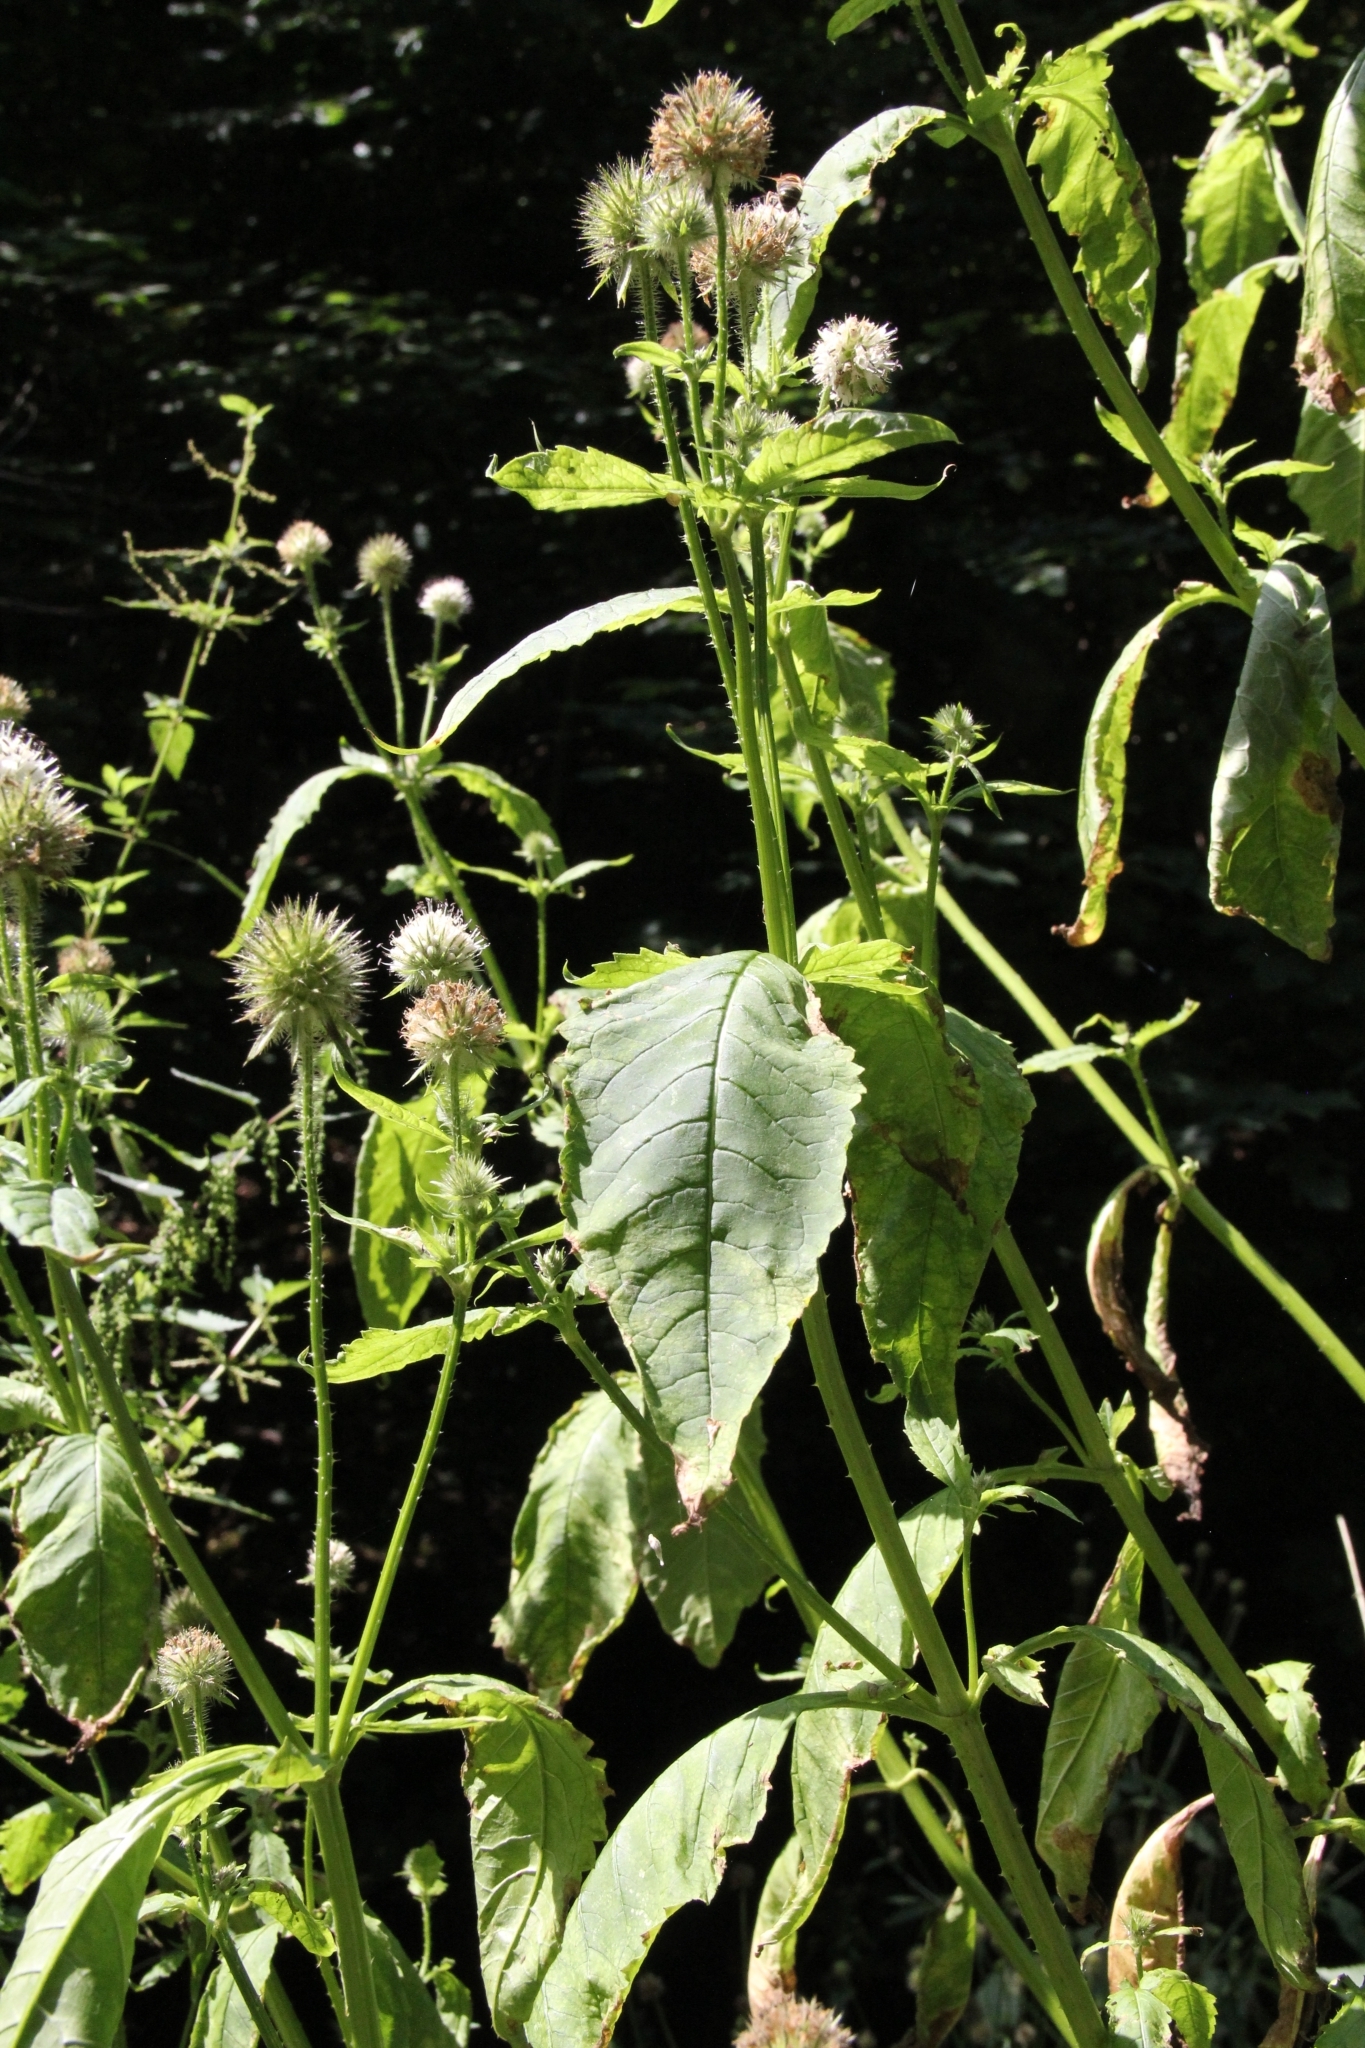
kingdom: Plantae
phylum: Tracheophyta
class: Magnoliopsida
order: Dipsacales
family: Caprifoliaceae
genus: Dipsacus
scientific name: Dipsacus pilosus
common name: Small teasel
